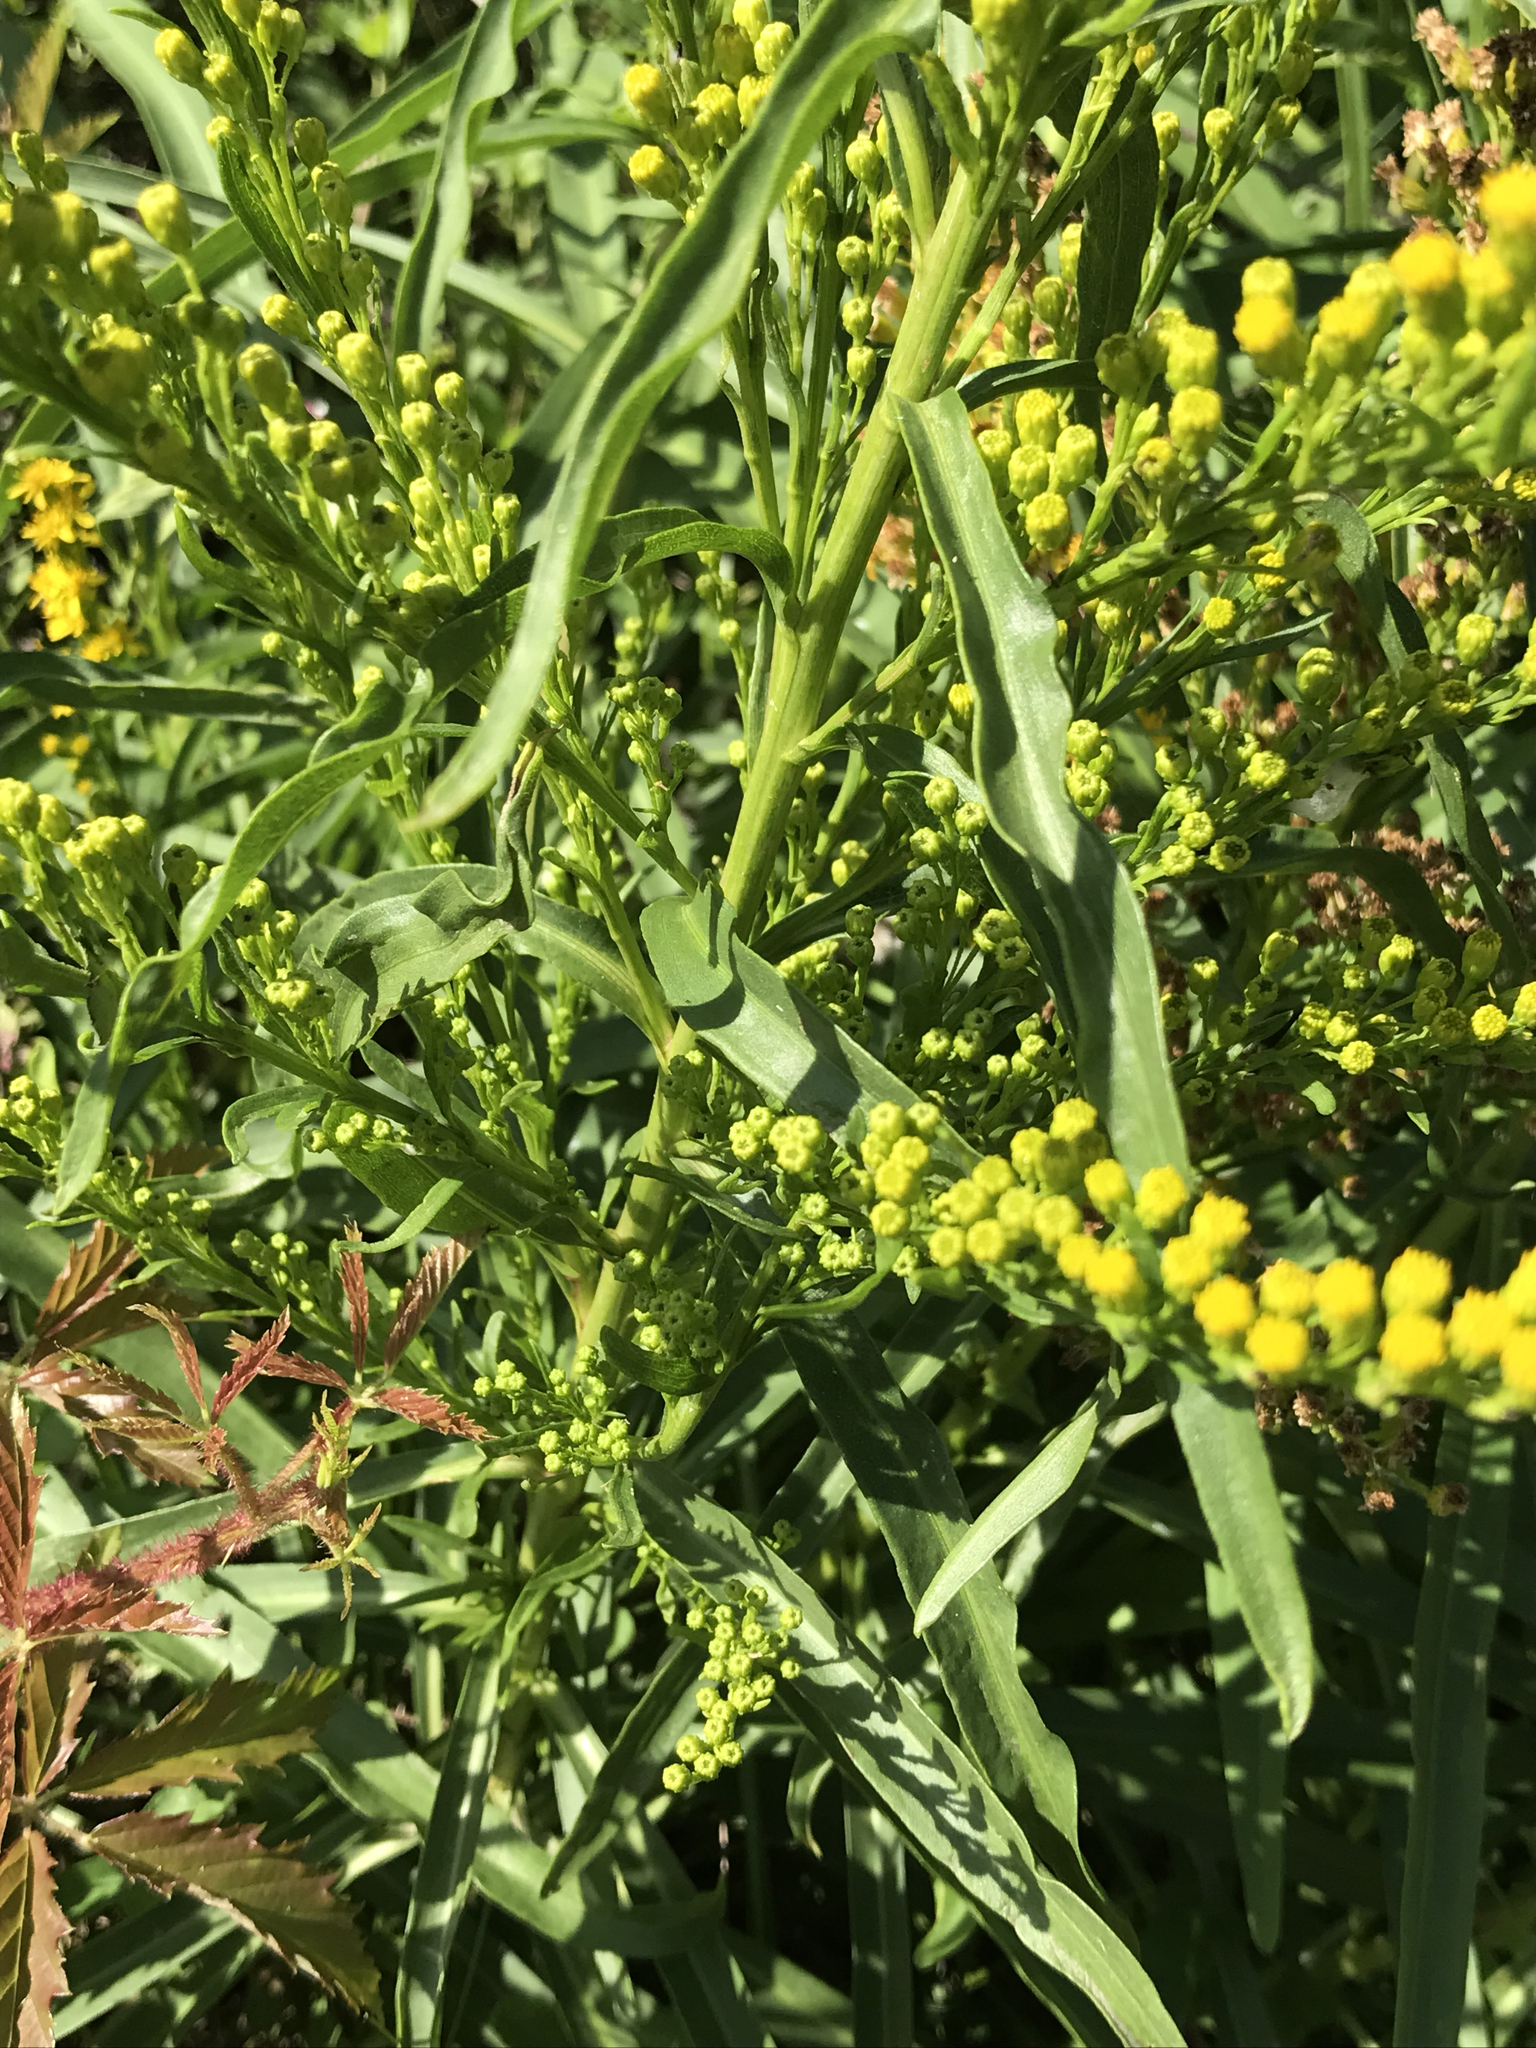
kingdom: Plantae
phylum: Tracheophyta
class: Magnoliopsida
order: Asterales
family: Asteraceae
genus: Solidago
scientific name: Solidago mexicana
